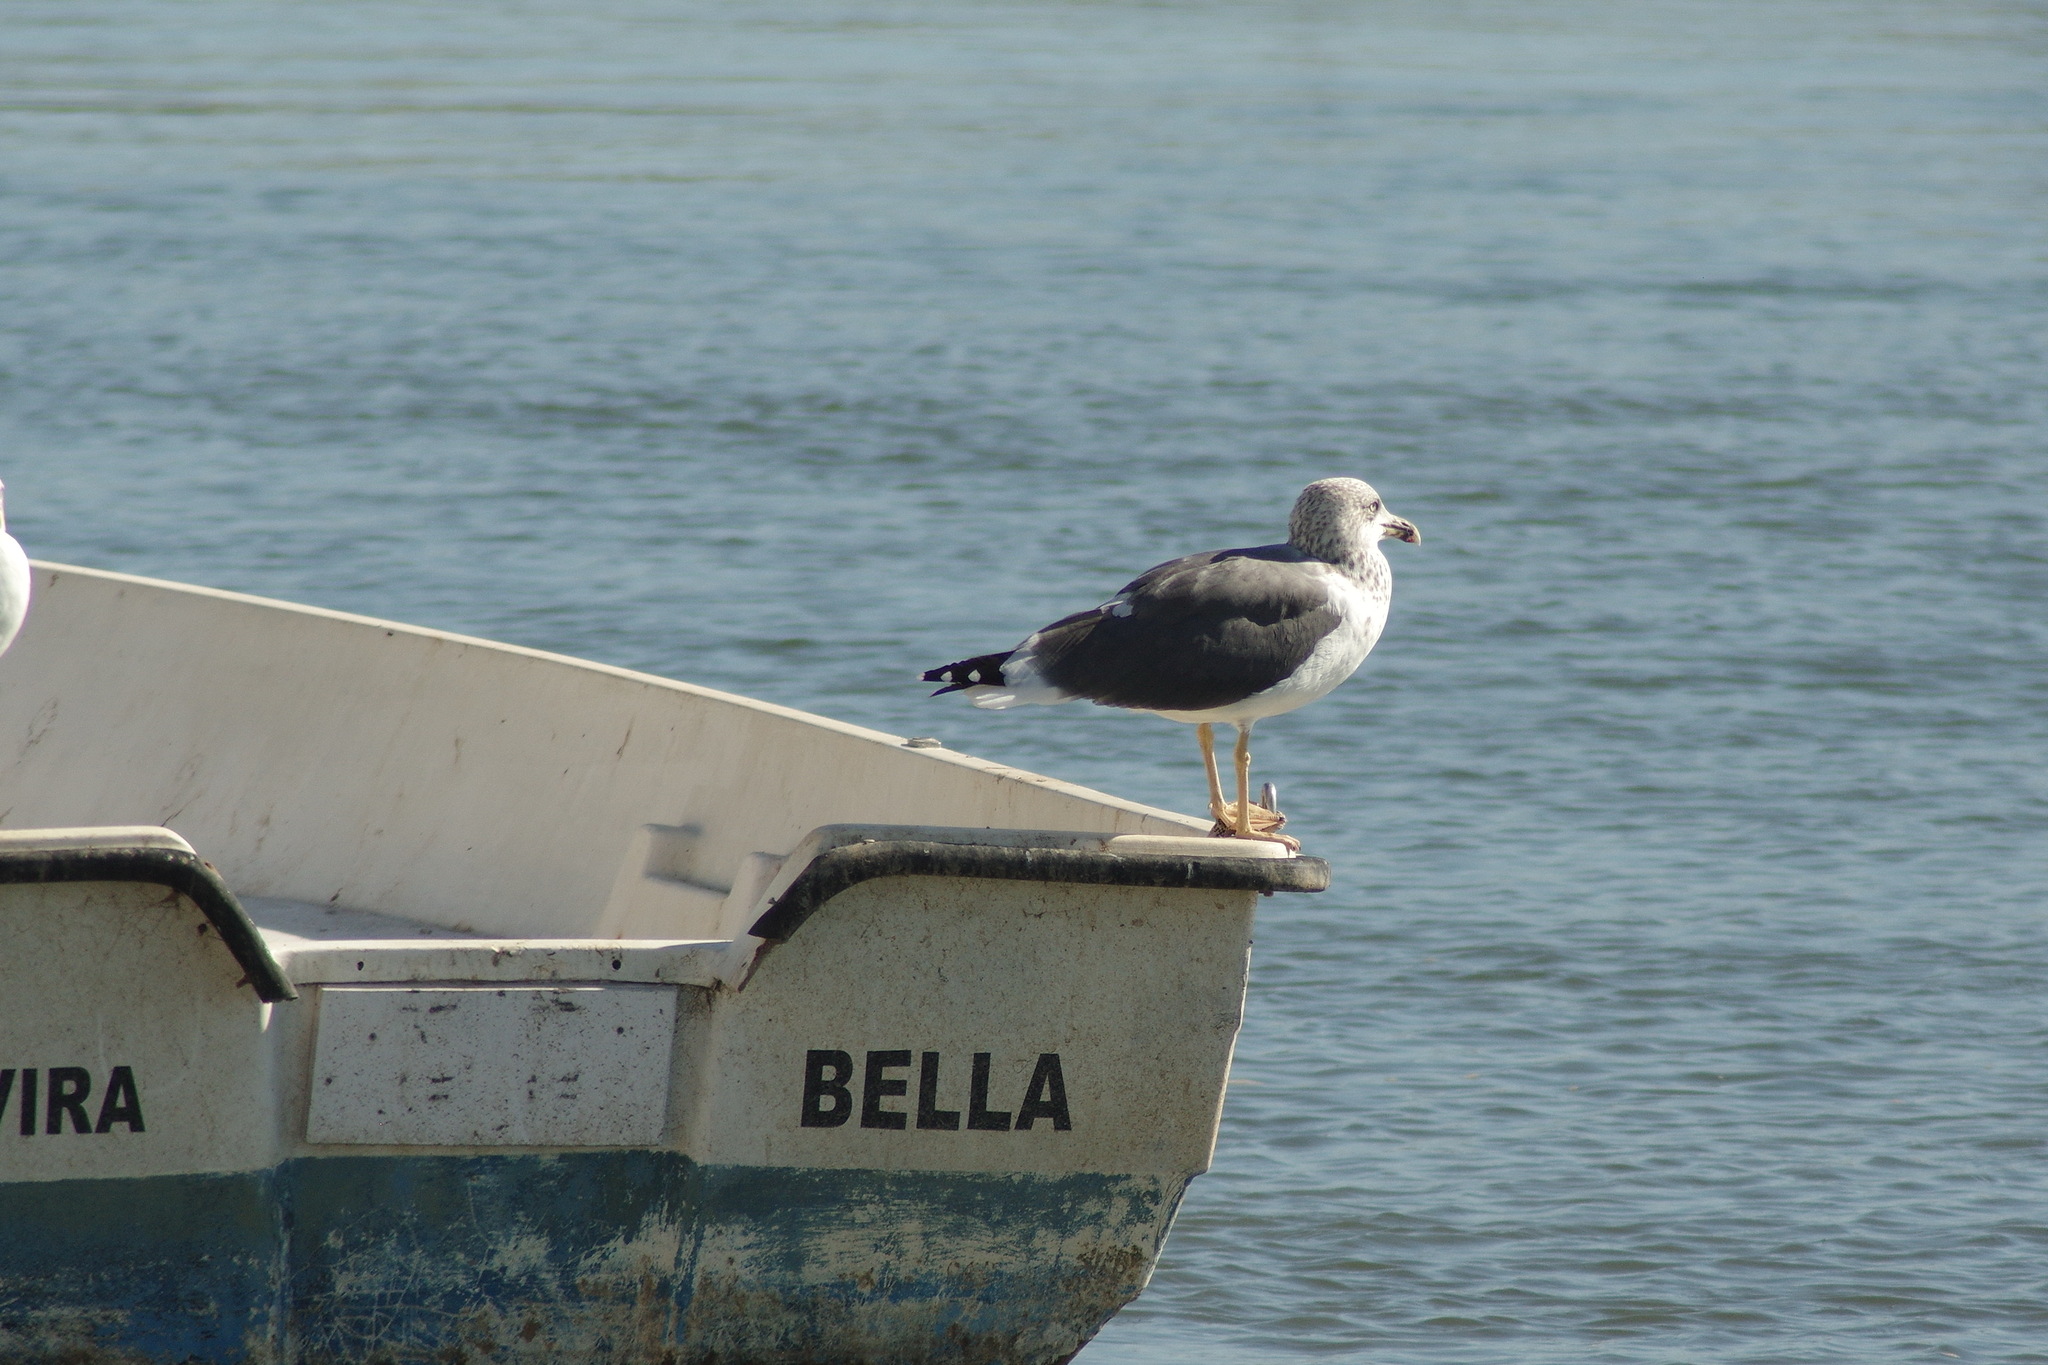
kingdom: Animalia
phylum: Chordata
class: Aves
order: Charadriiformes
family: Laridae
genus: Larus
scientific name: Larus fuscus
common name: Lesser black-backed gull
